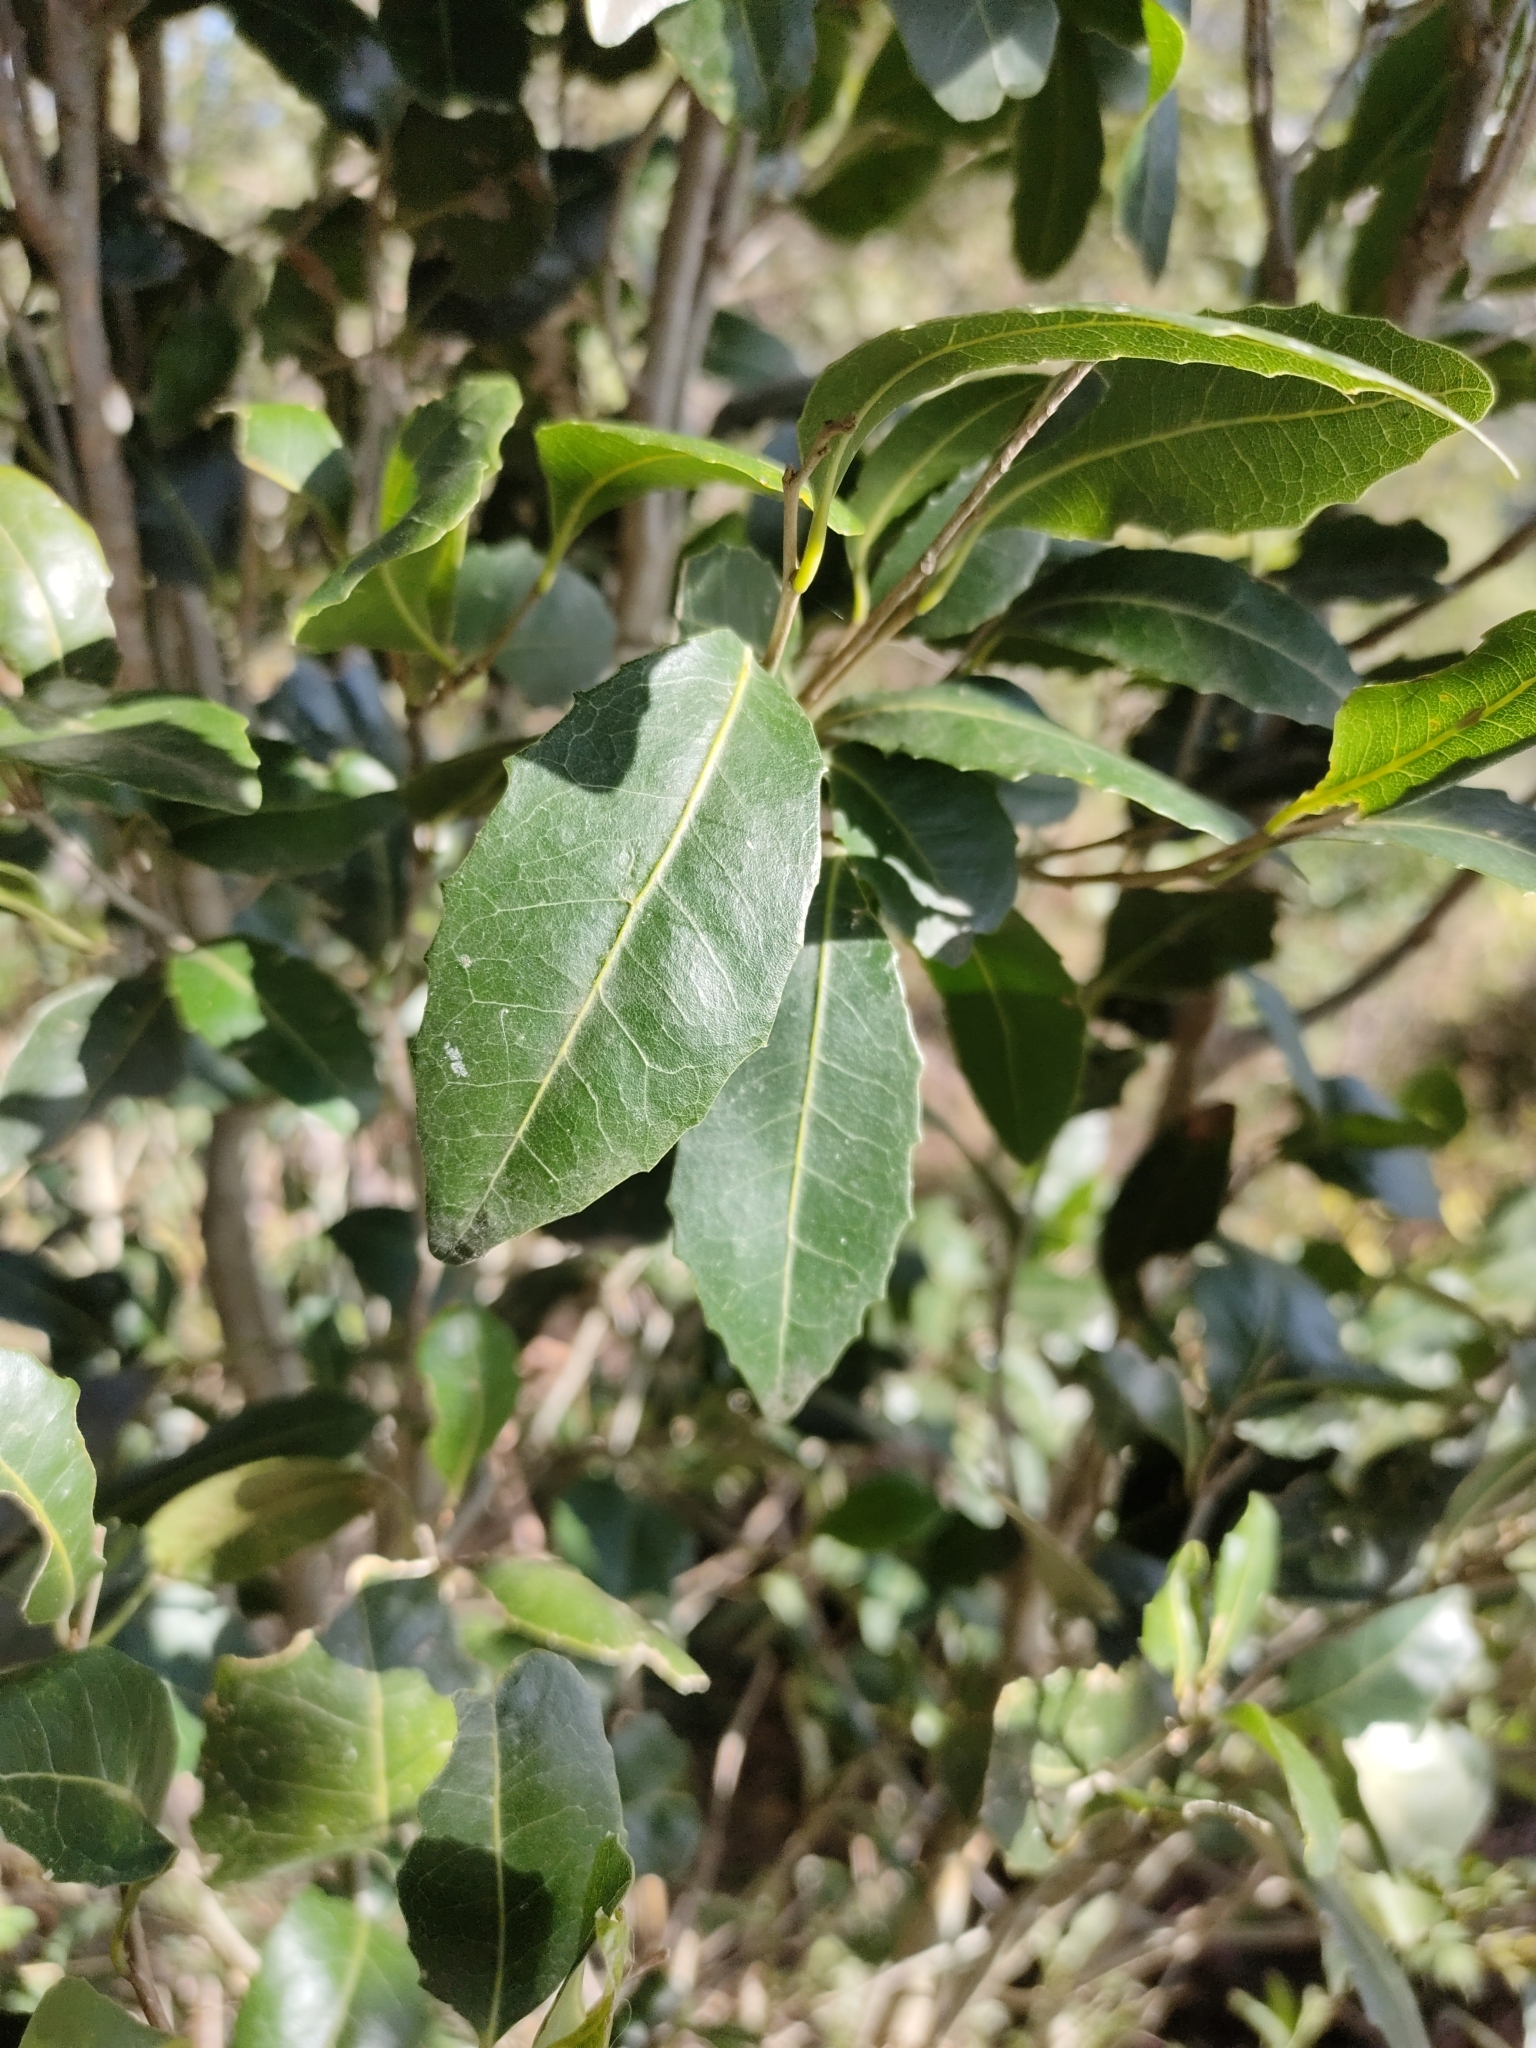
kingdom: Plantae
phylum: Tracheophyta
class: Magnoliopsida
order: Malpighiales
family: Putranjivaceae
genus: Drypetes
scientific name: Drypetes deplanchei
